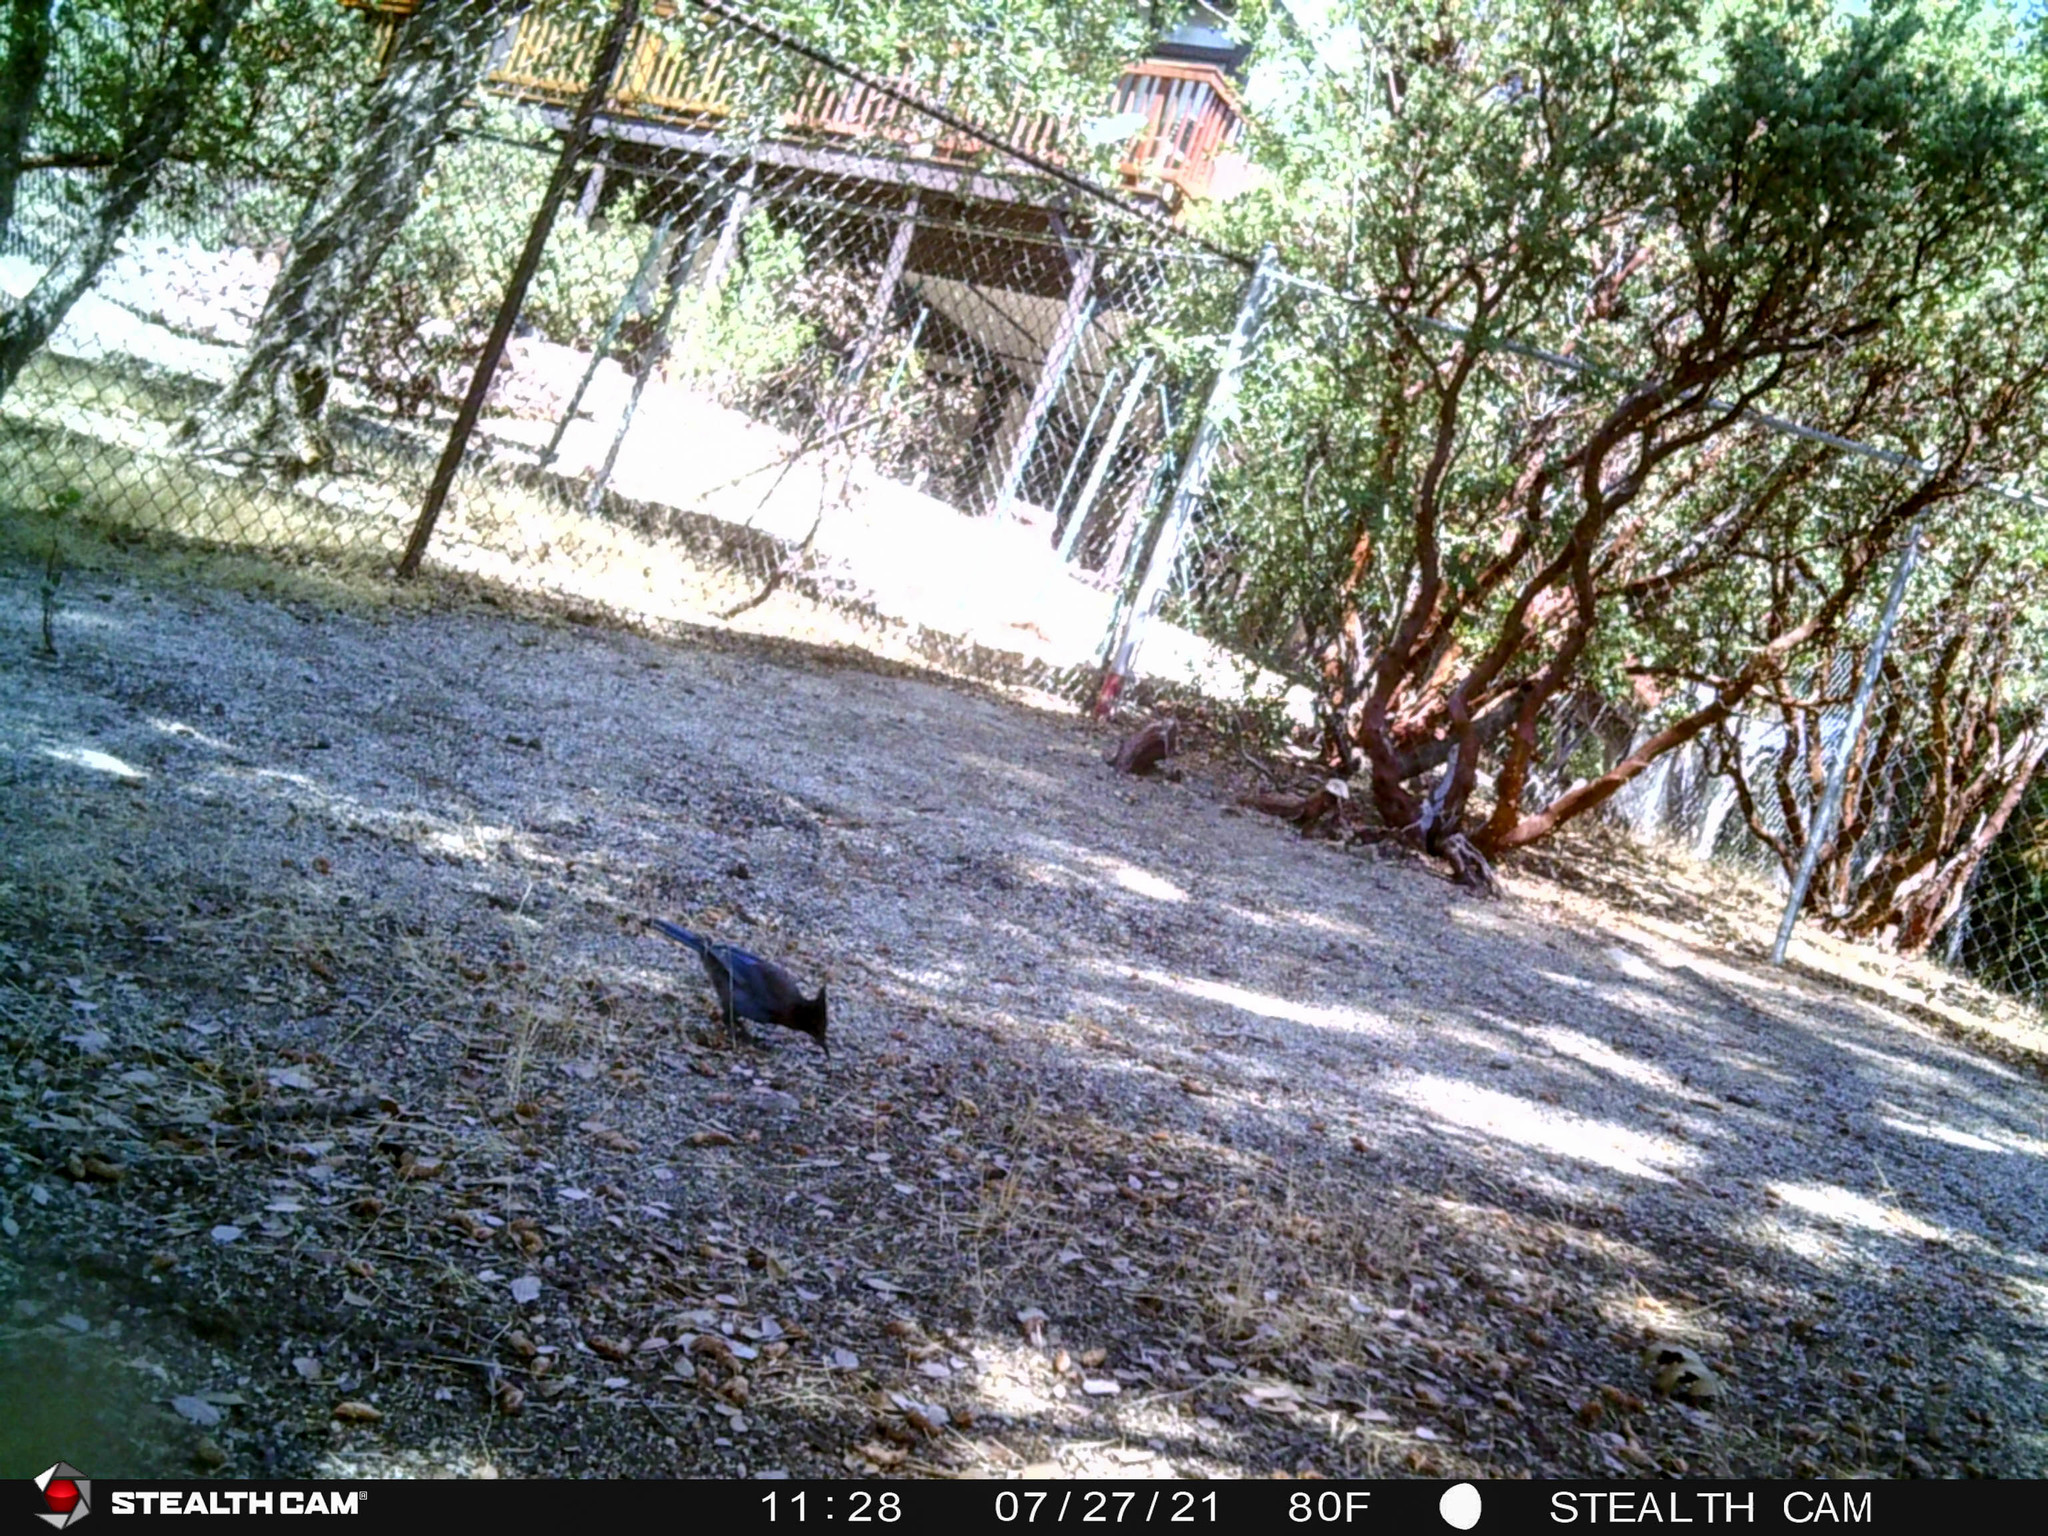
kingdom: Animalia
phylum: Chordata
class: Aves
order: Passeriformes
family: Corvidae
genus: Cyanocitta
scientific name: Cyanocitta stelleri
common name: Steller's jay
